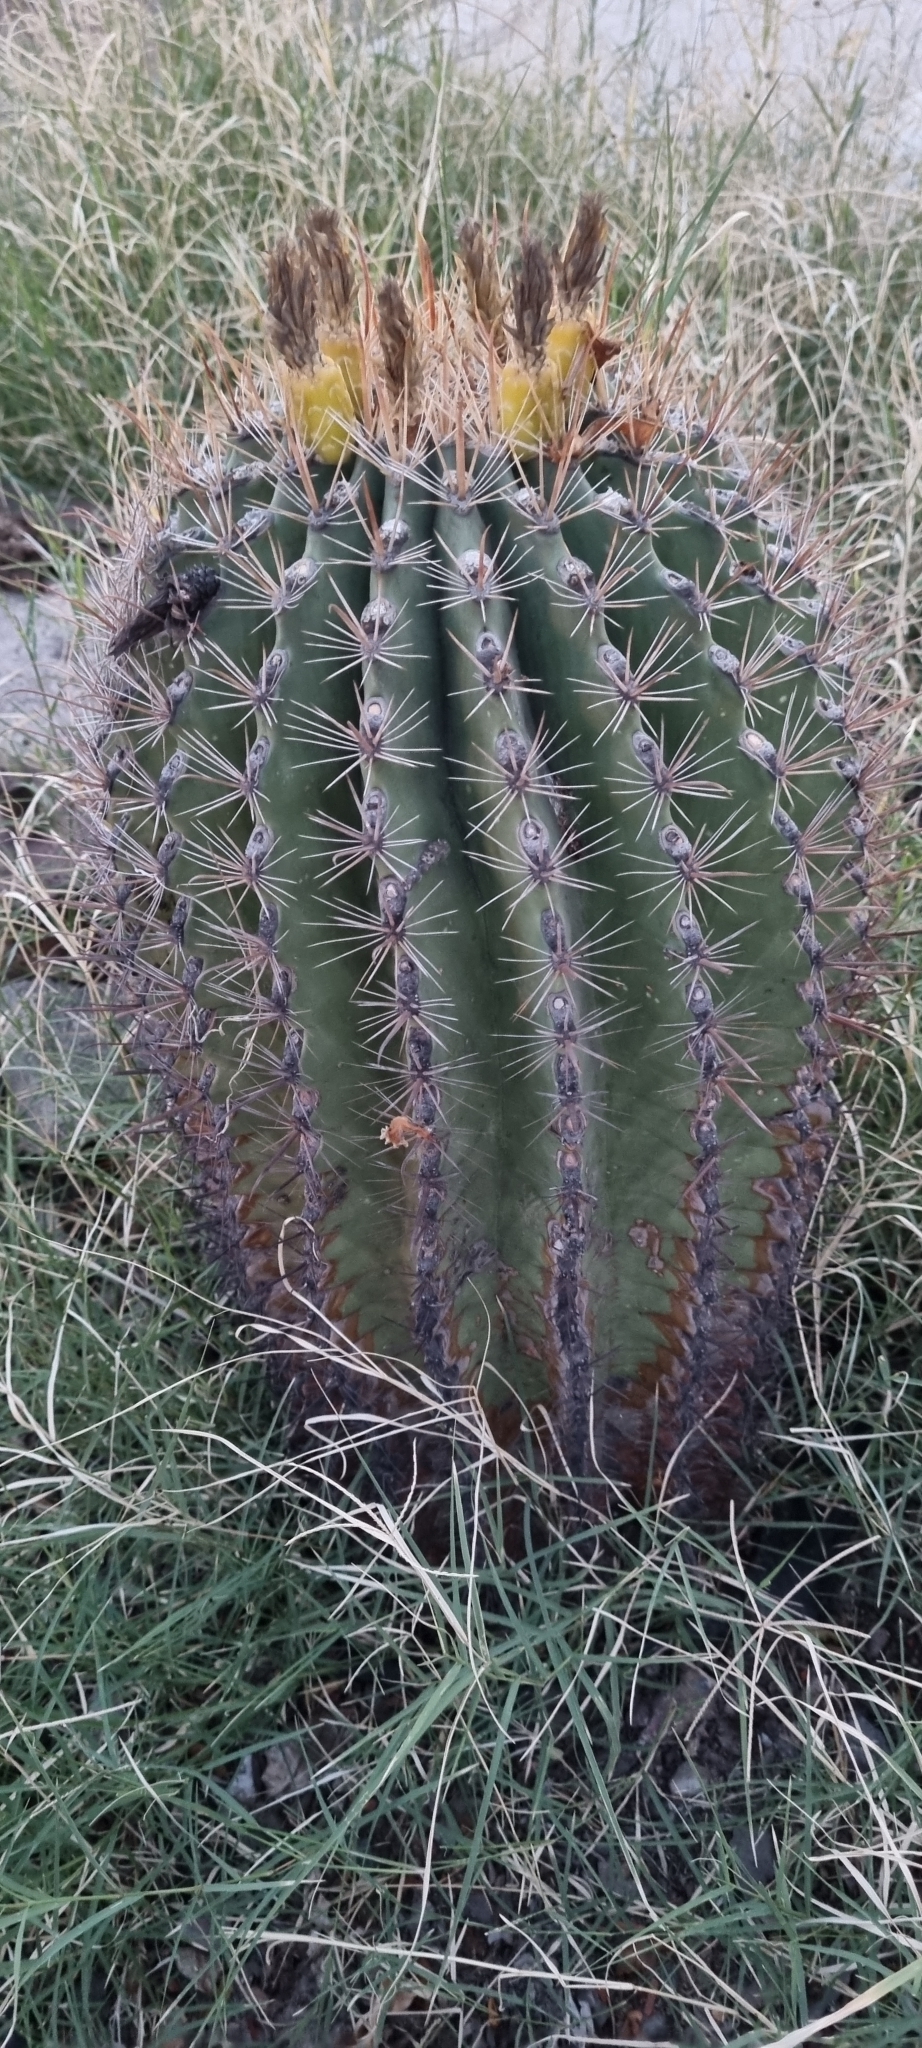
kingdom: Plantae
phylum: Tracheophyta
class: Magnoliopsida
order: Caryophyllales
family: Cactaceae
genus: Ferocactus
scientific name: Ferocactus townsendianus
